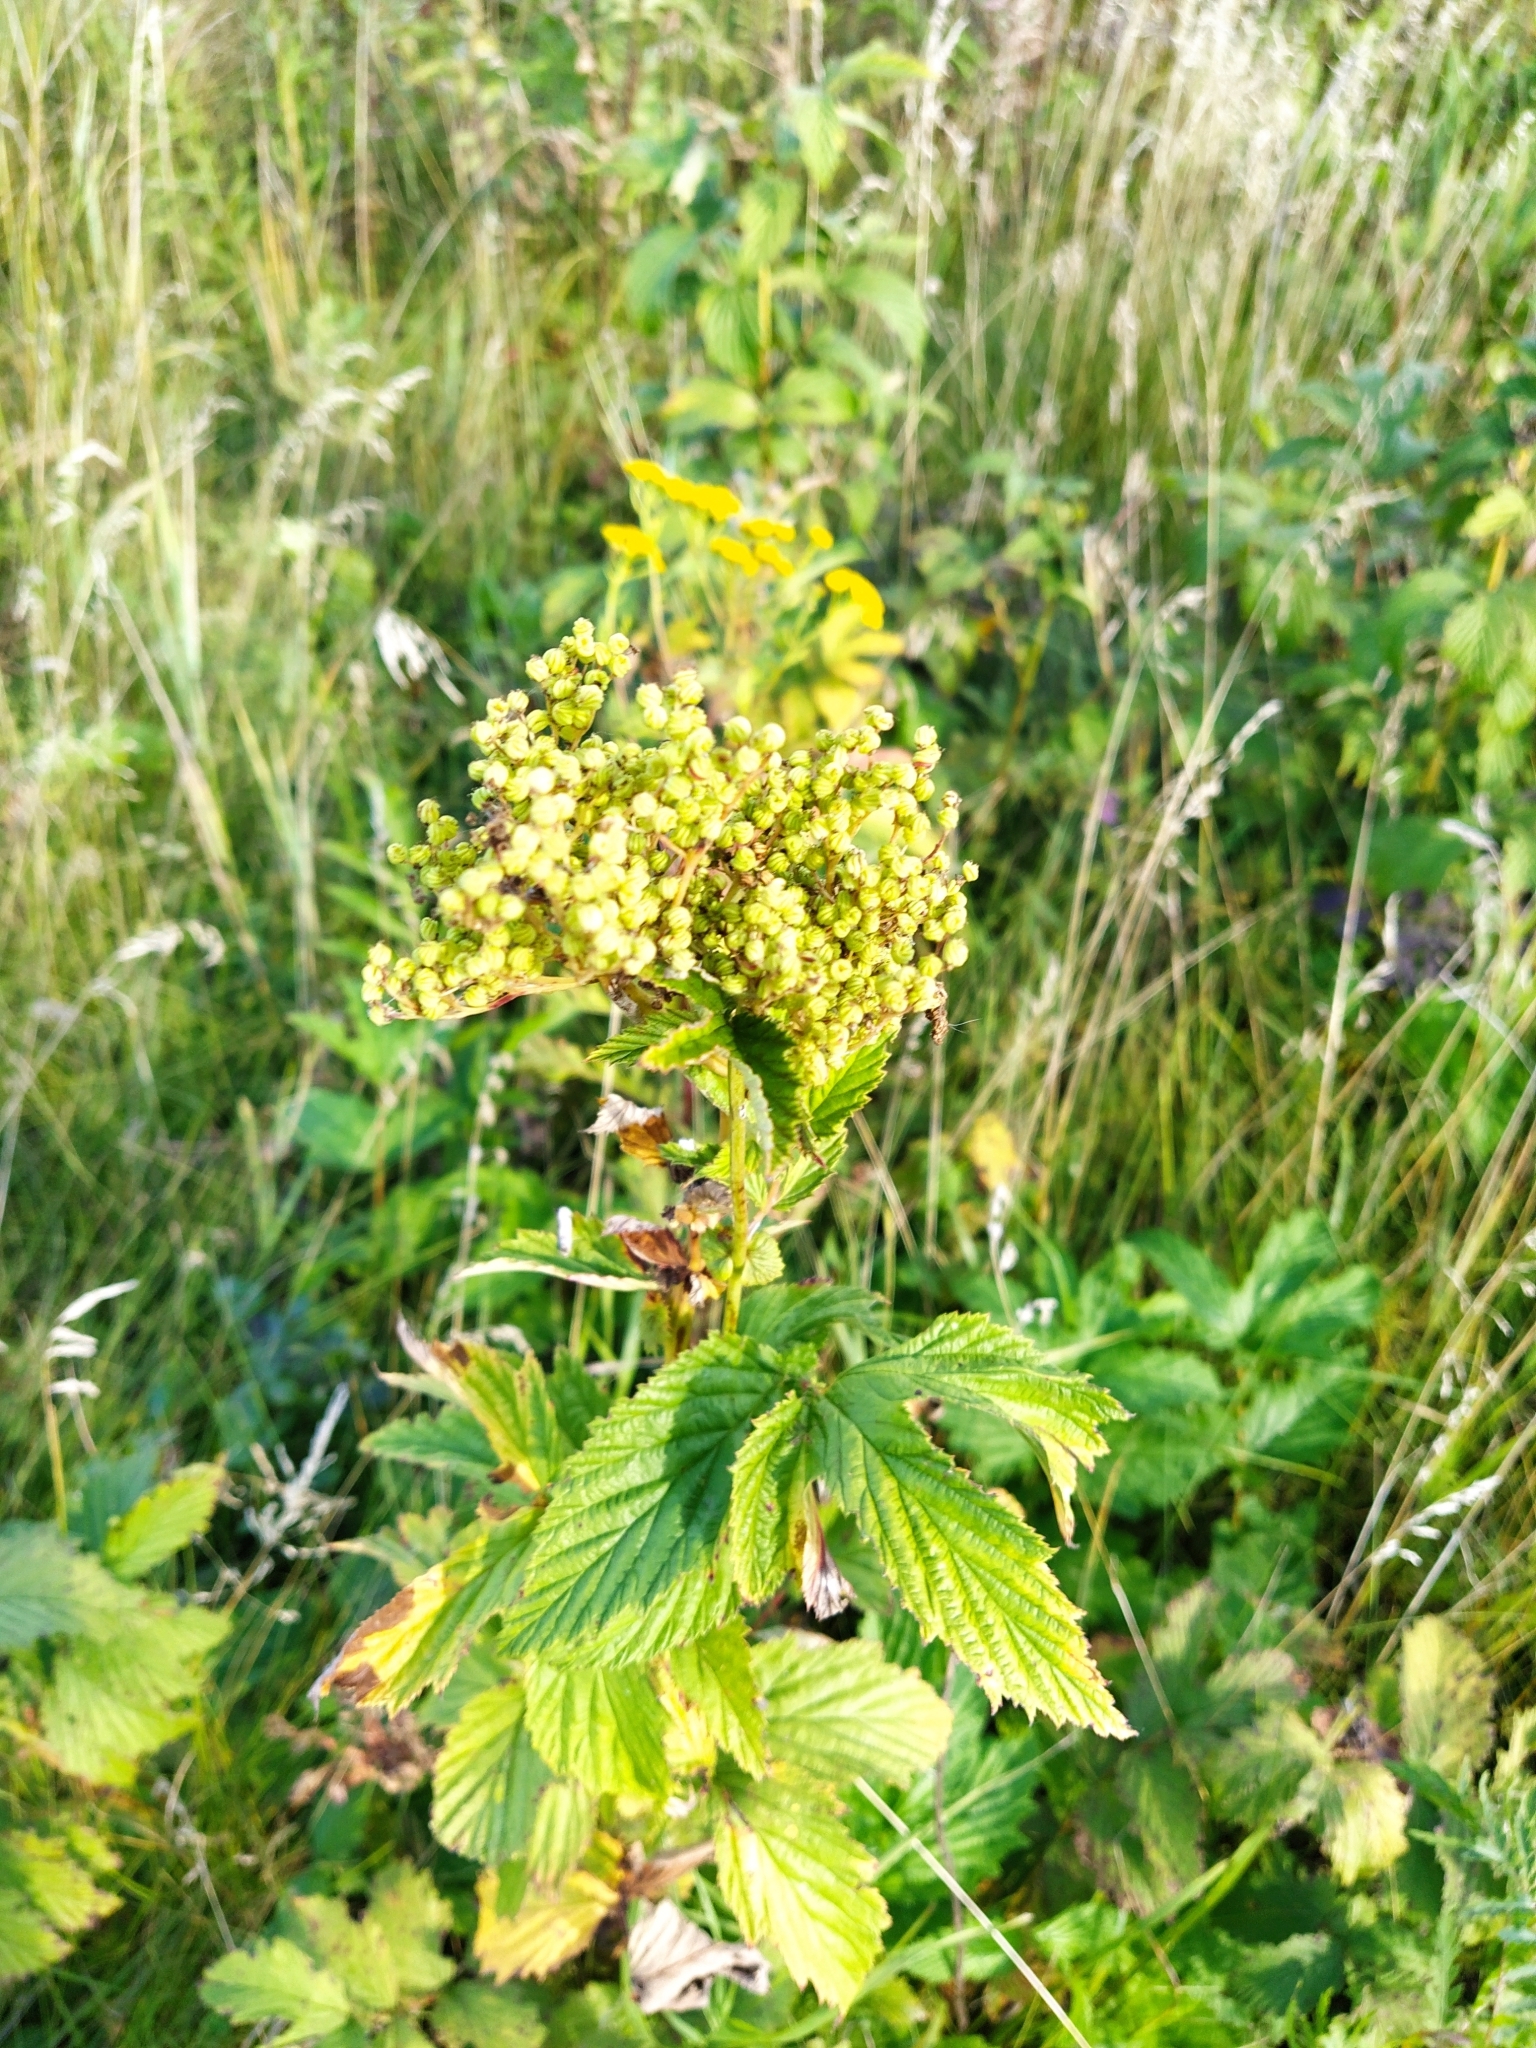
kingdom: Plantae
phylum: Tracheophyta
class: Magnoliopsida
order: Rosales
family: Rosaceae
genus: Filipendula
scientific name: Filipendula ulmaria
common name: Meadowsweet
